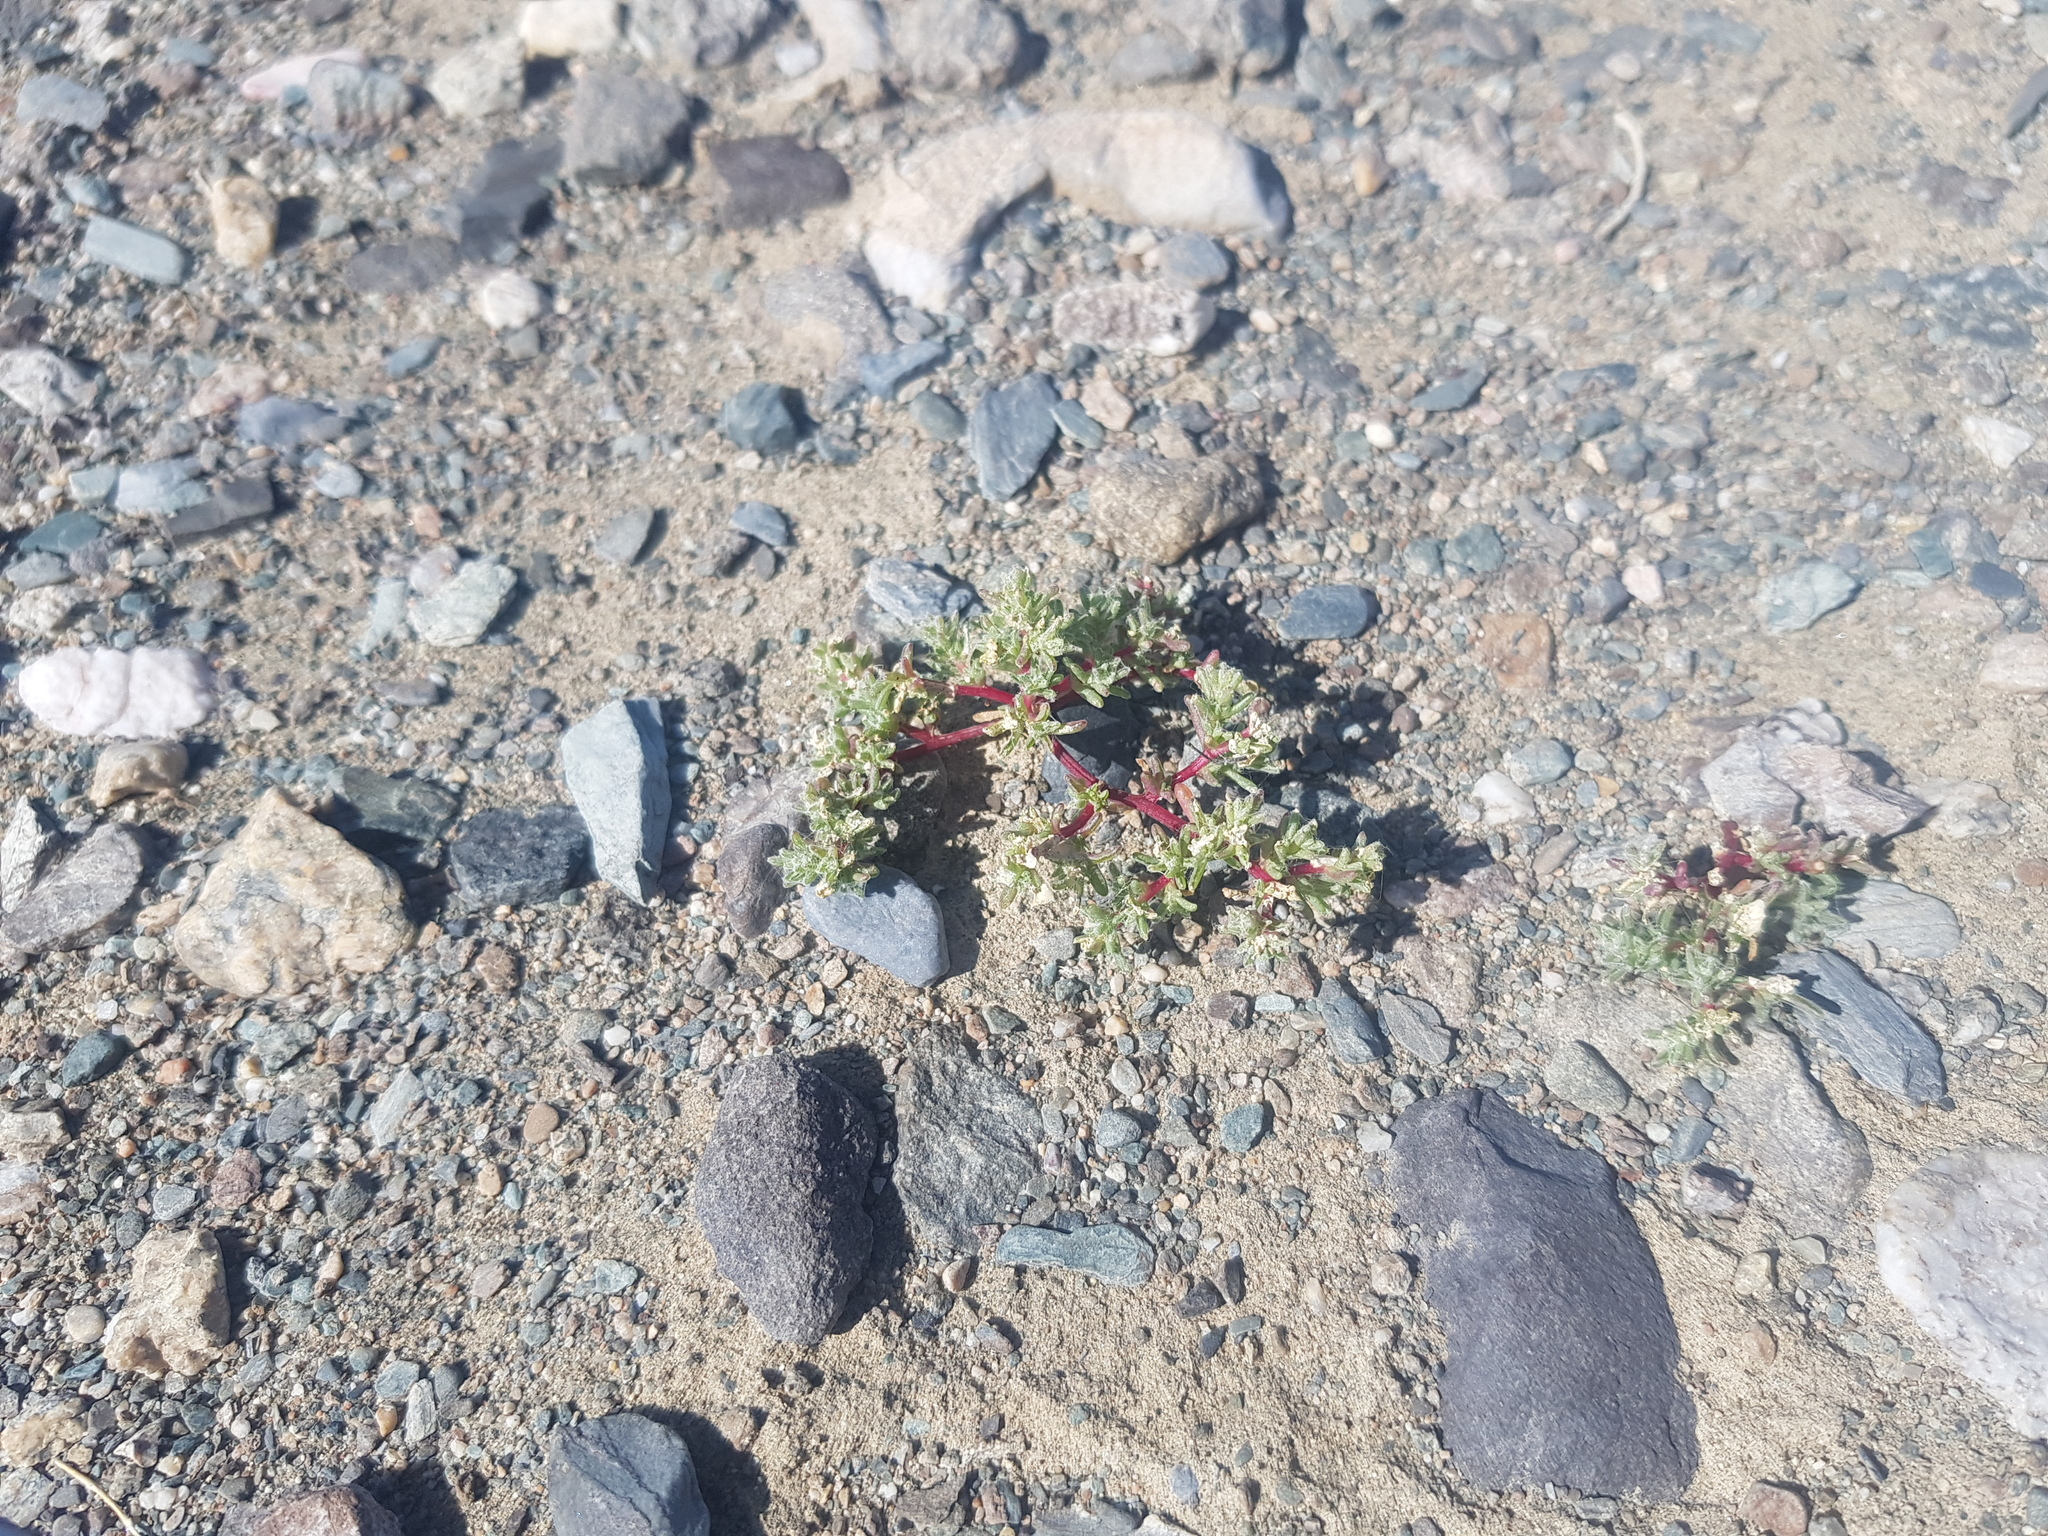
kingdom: Plantae
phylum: Tracheophyta
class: Magnoliopsida
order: Caryophyllales
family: Amaranthaceae
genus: Halogeton
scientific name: Halogeton arachnoides
